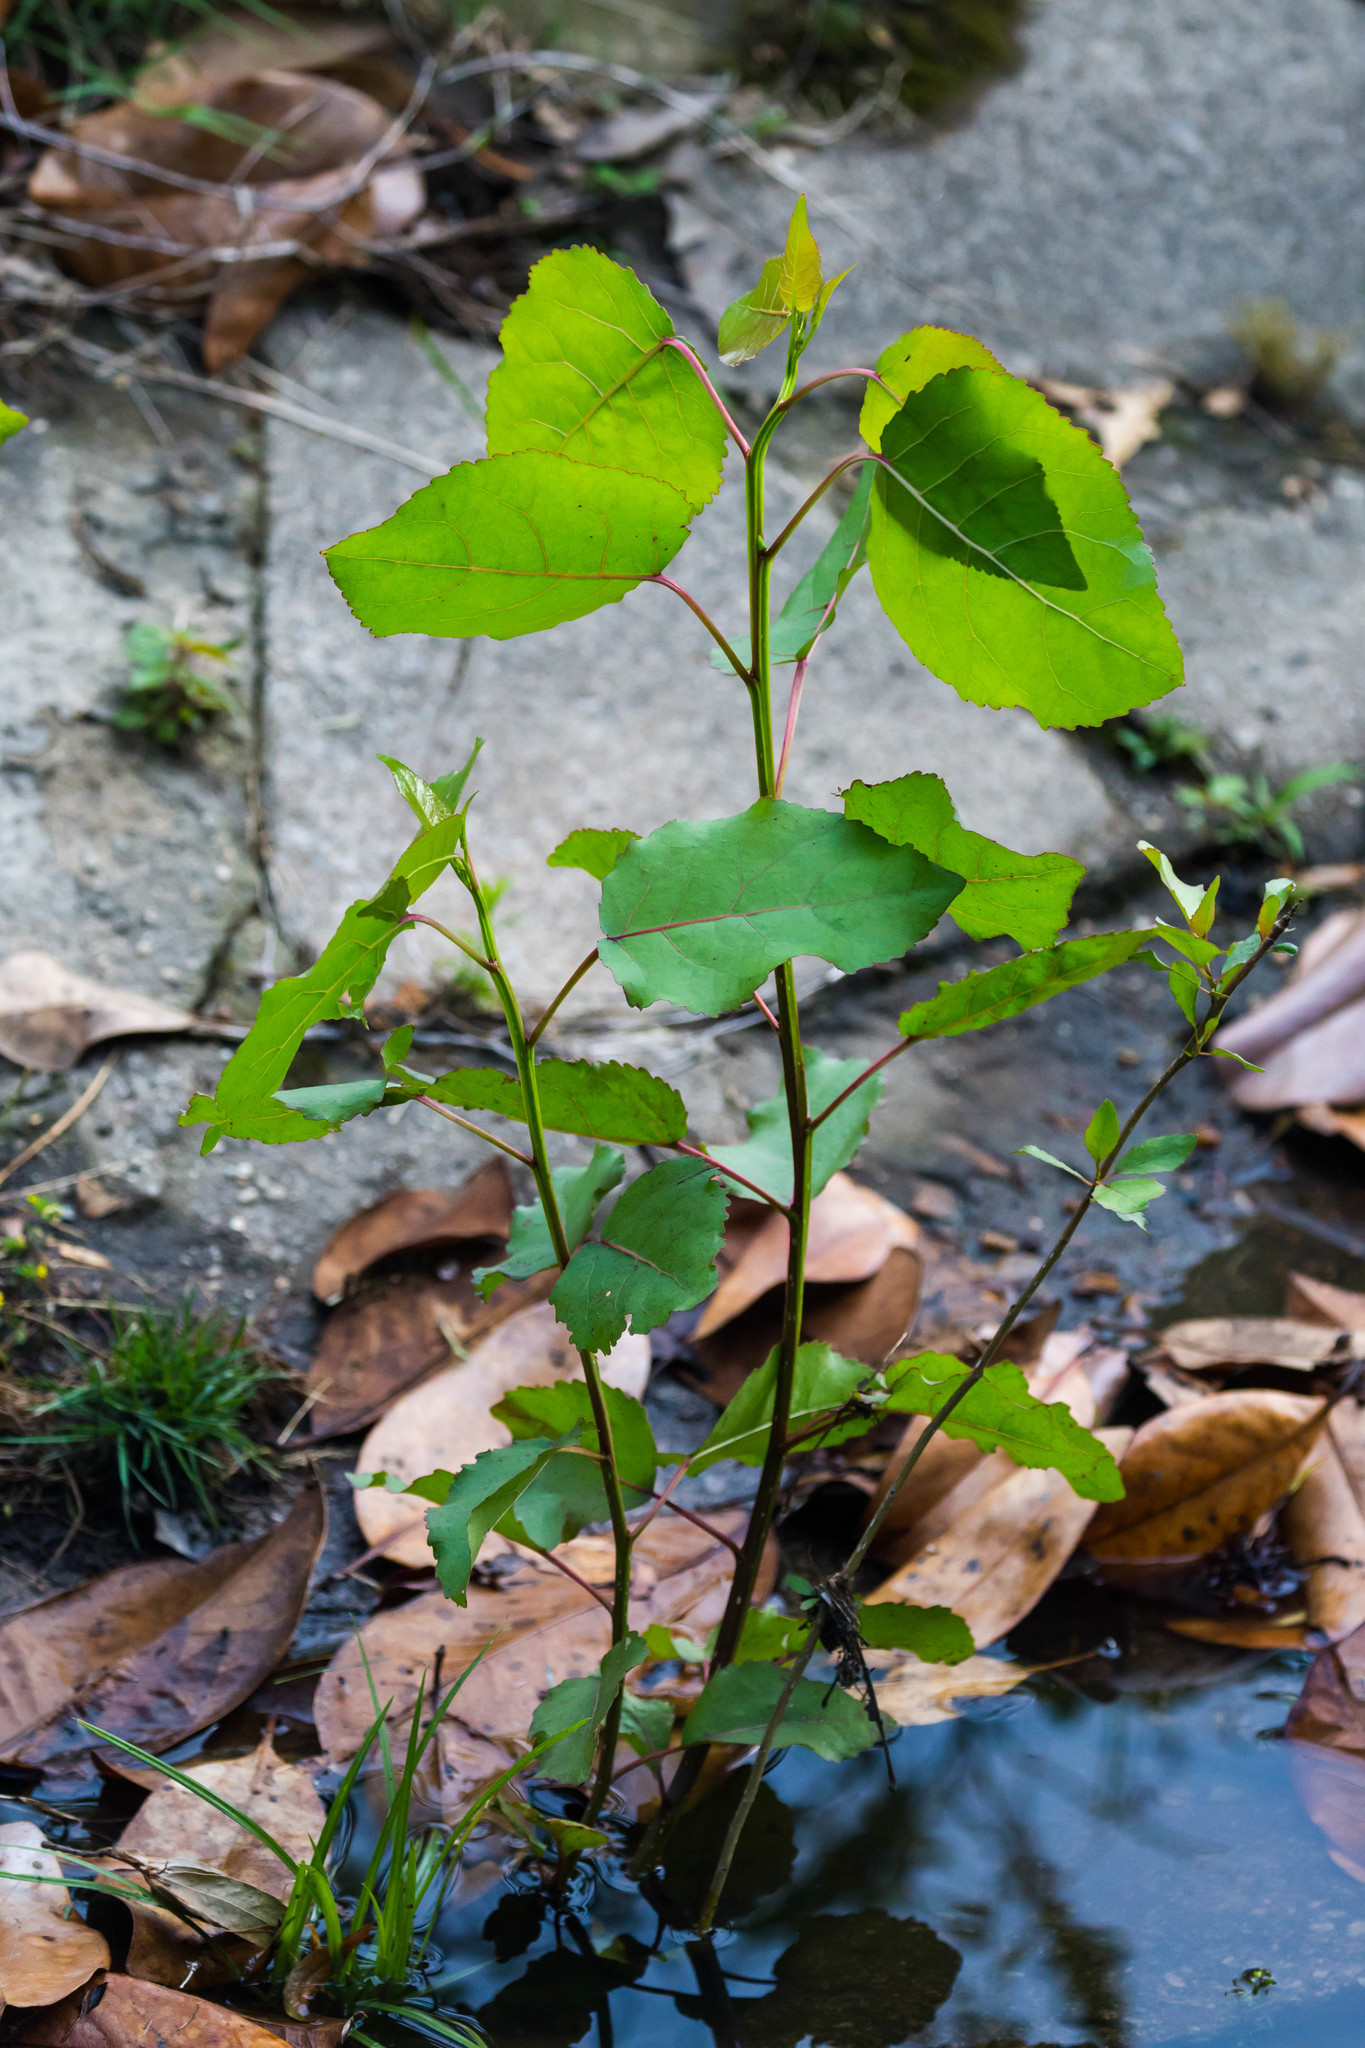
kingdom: Plantae
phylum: Tracheophyta
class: Magnoliopsida
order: Malpighiales
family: Salicaceae
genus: Populus
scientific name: Populus deltoides
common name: Eastern cottonwood
